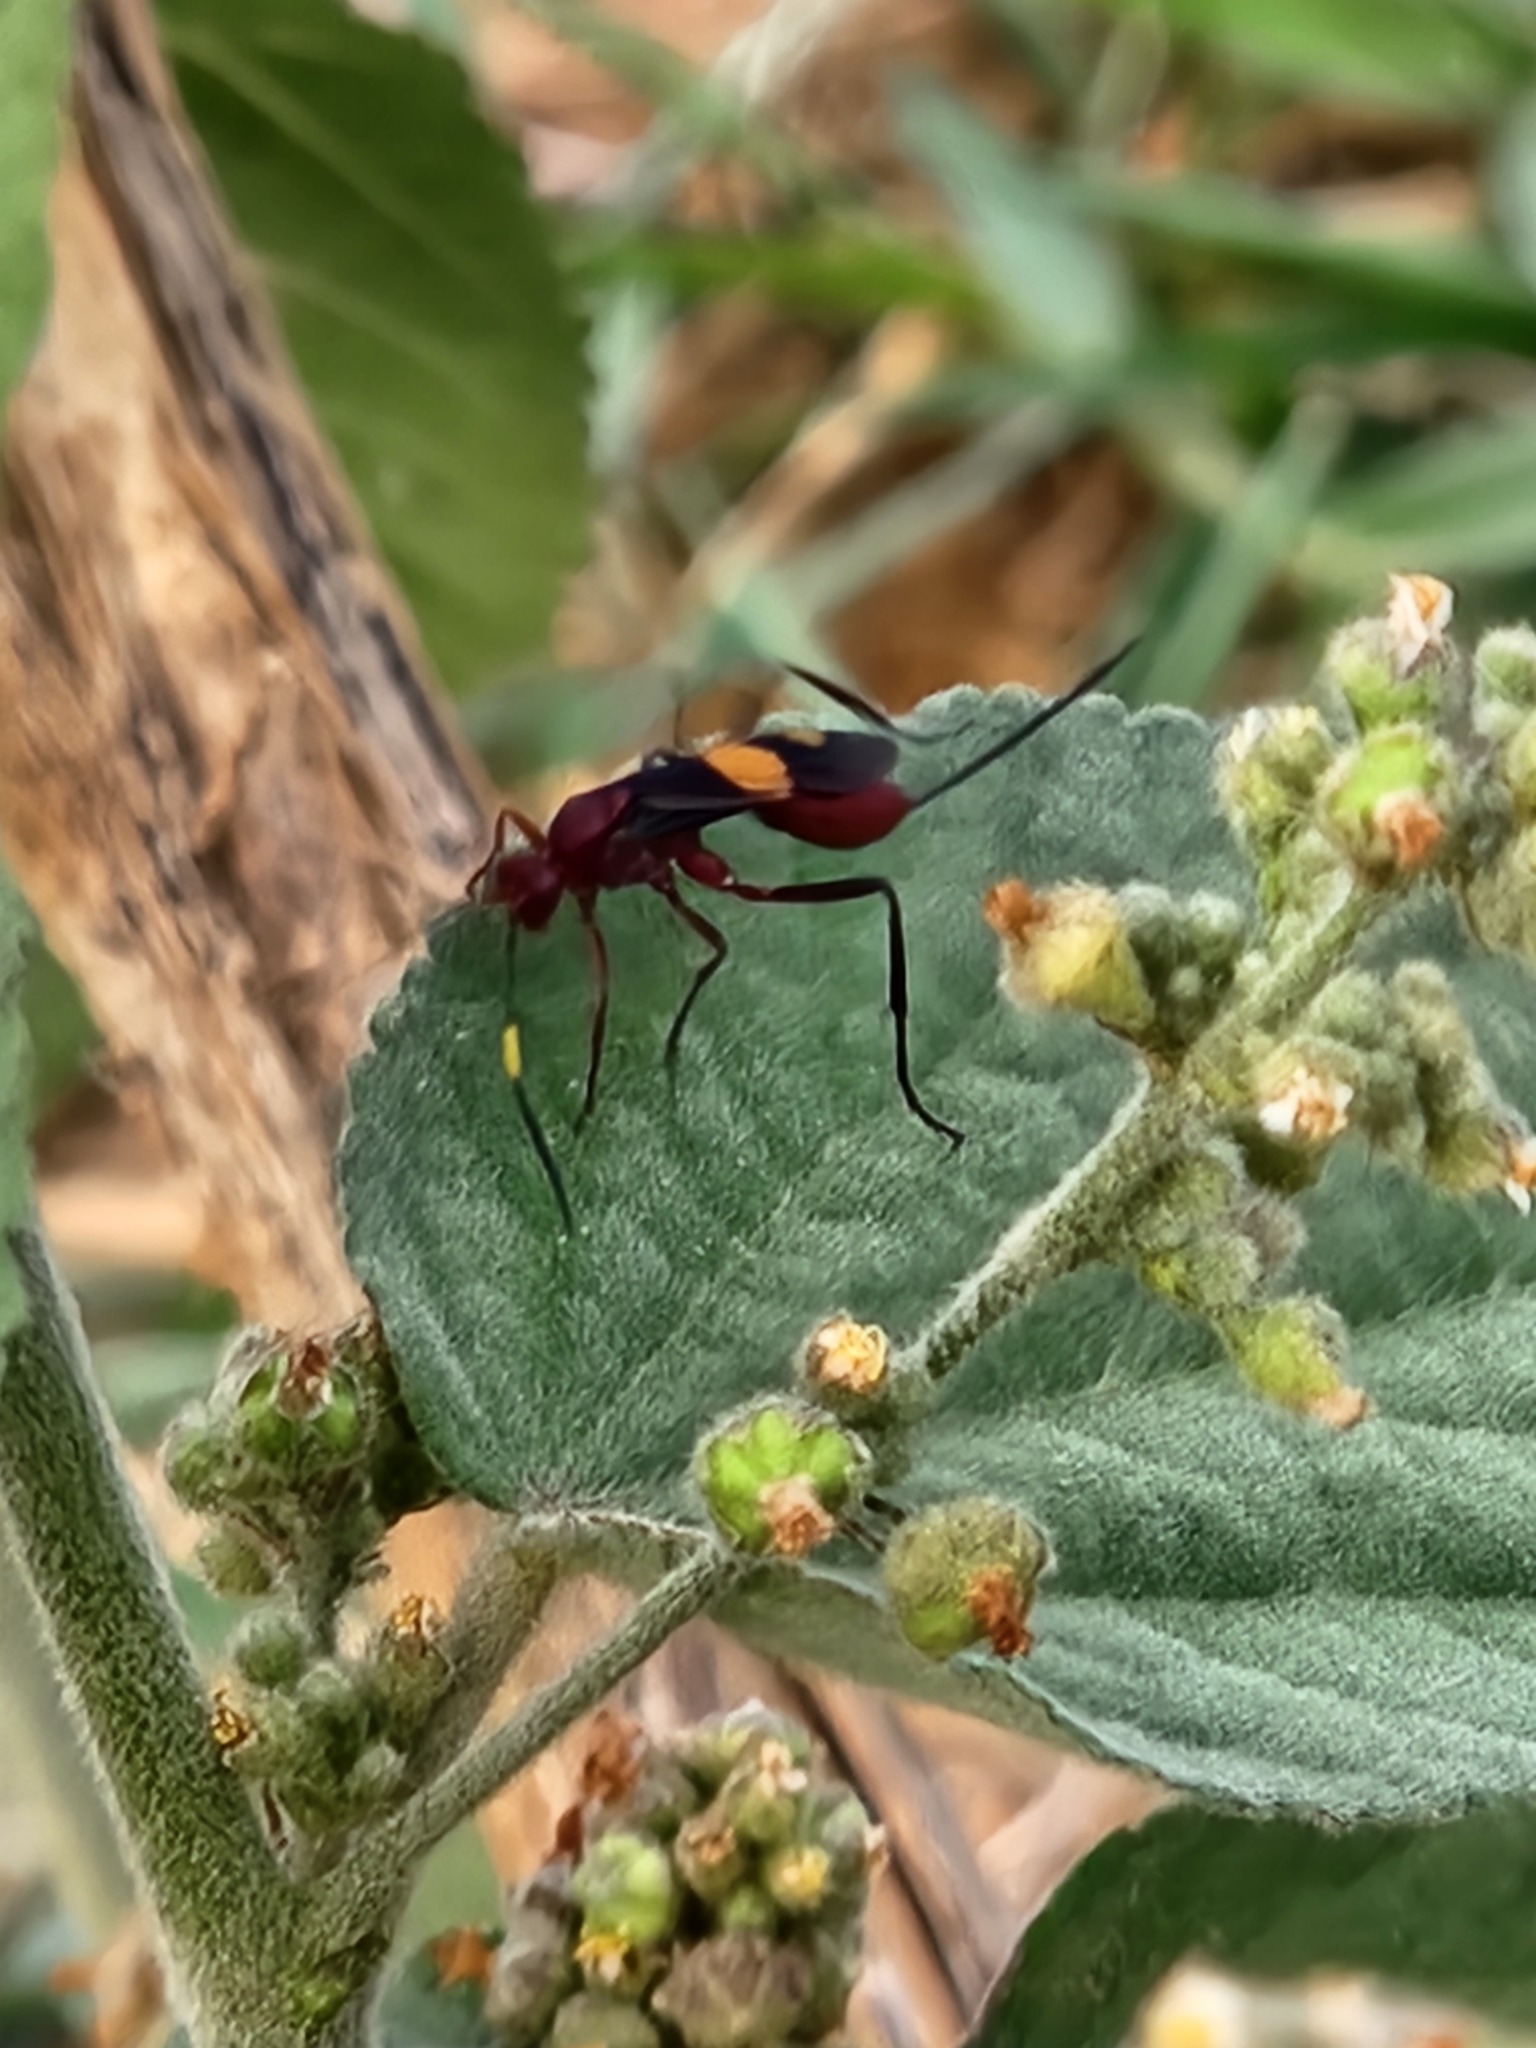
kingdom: Animalia
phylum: Arthropoda
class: Insecta
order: Hymenoptera
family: Ichneumonidae
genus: Compsocryptus
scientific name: Compsocryptus melanostigma
